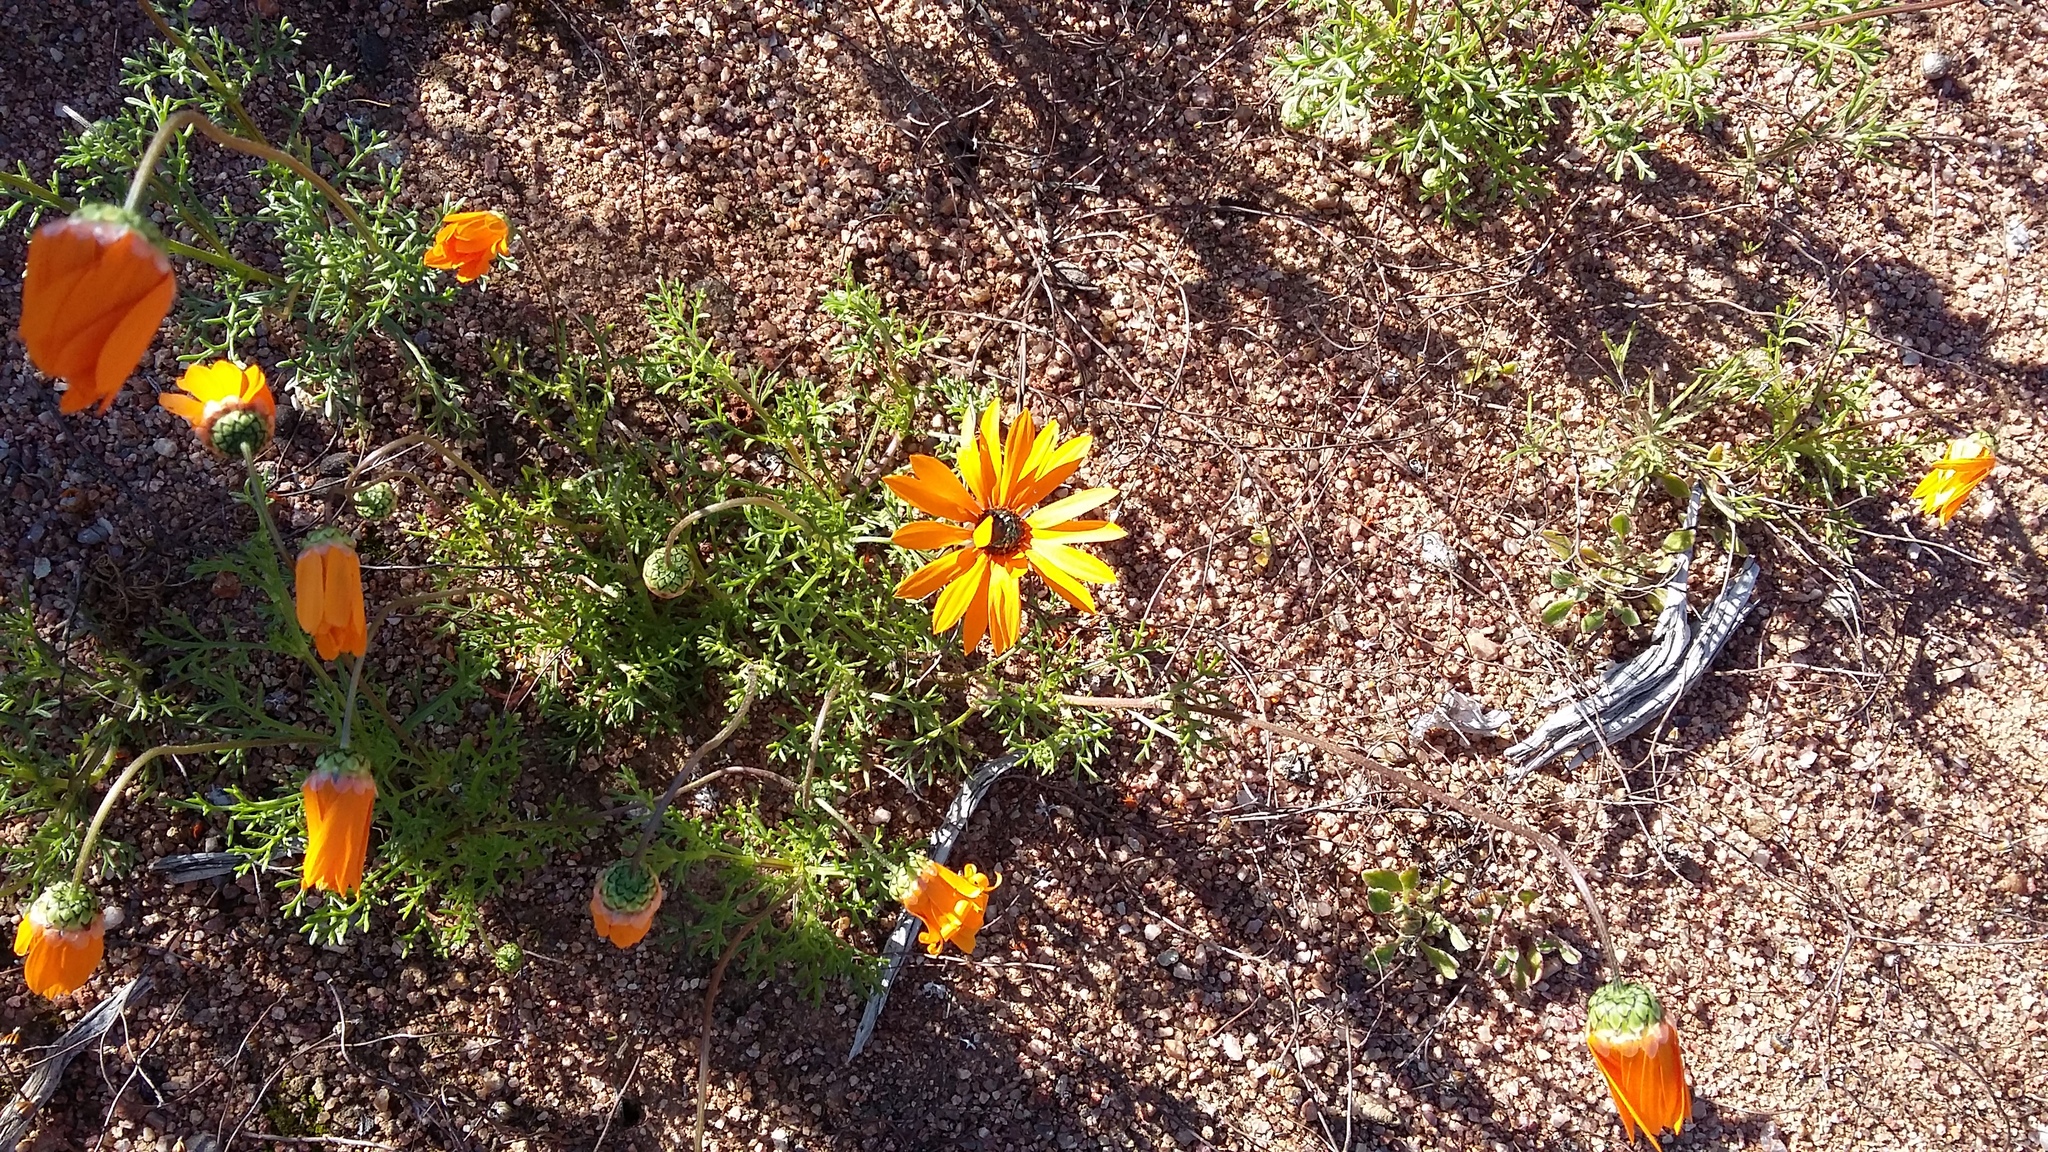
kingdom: Plantae
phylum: Tracheophyta
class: Magnoliopsida
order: Asterales
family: Asteraceae
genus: Ursinia
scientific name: Ursinia cakilefolia
